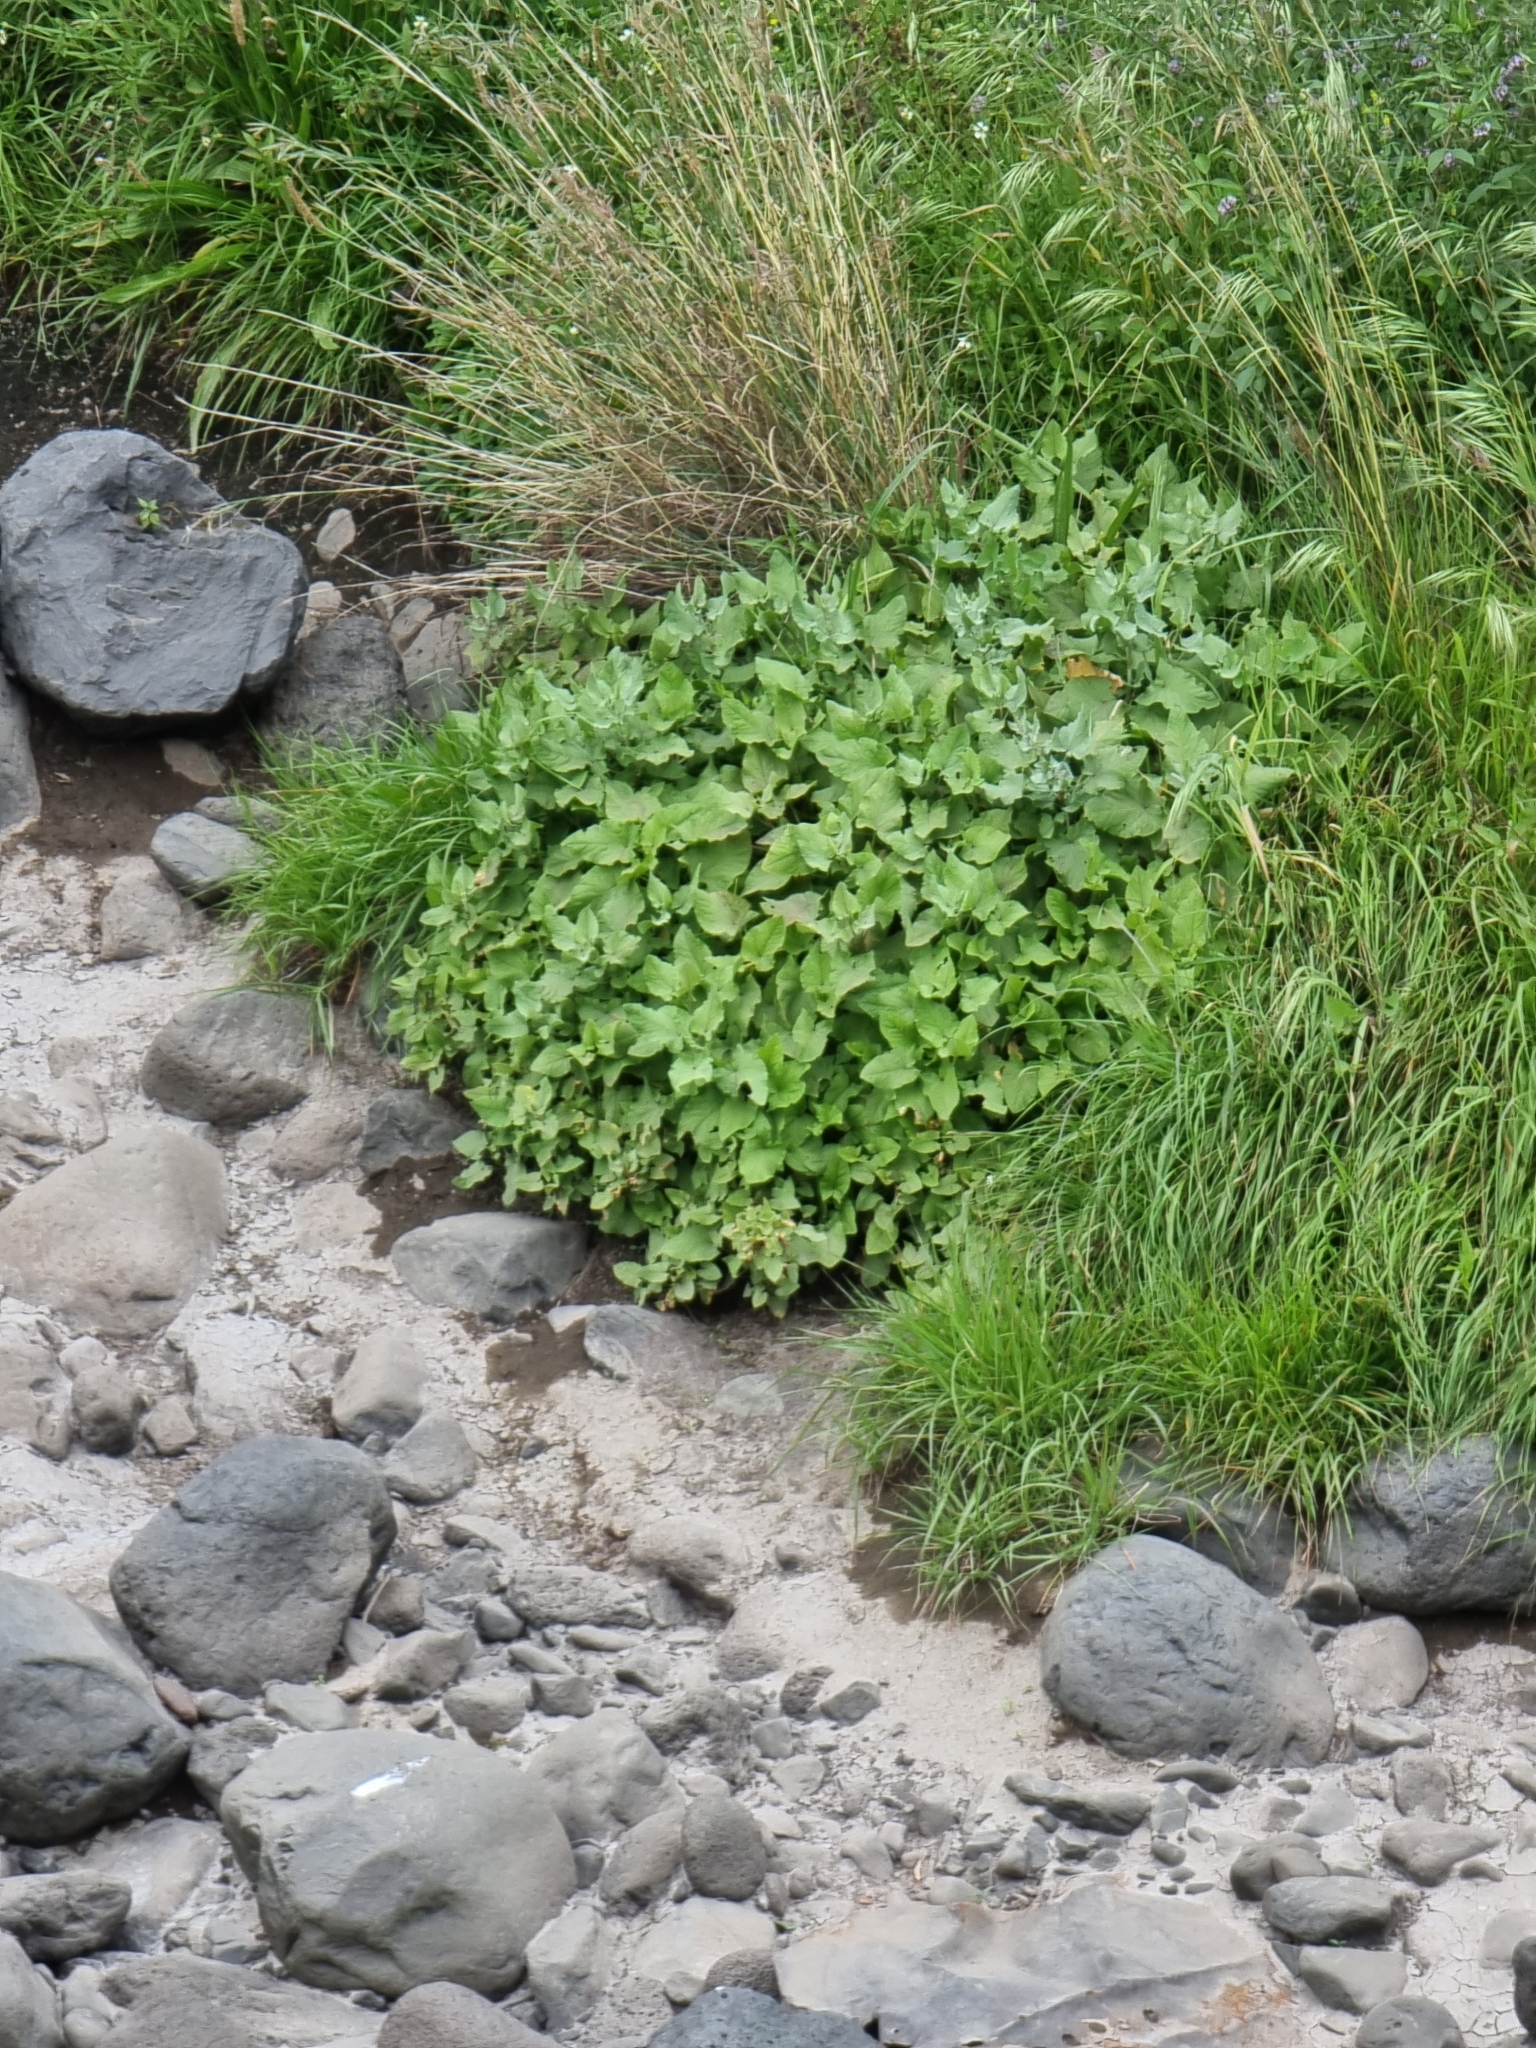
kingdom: Plantae
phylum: Tracheophyta
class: Magnoliopsida
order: Caryophyllales
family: Polygonaceae
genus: Rumex
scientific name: Rumex maderensis
